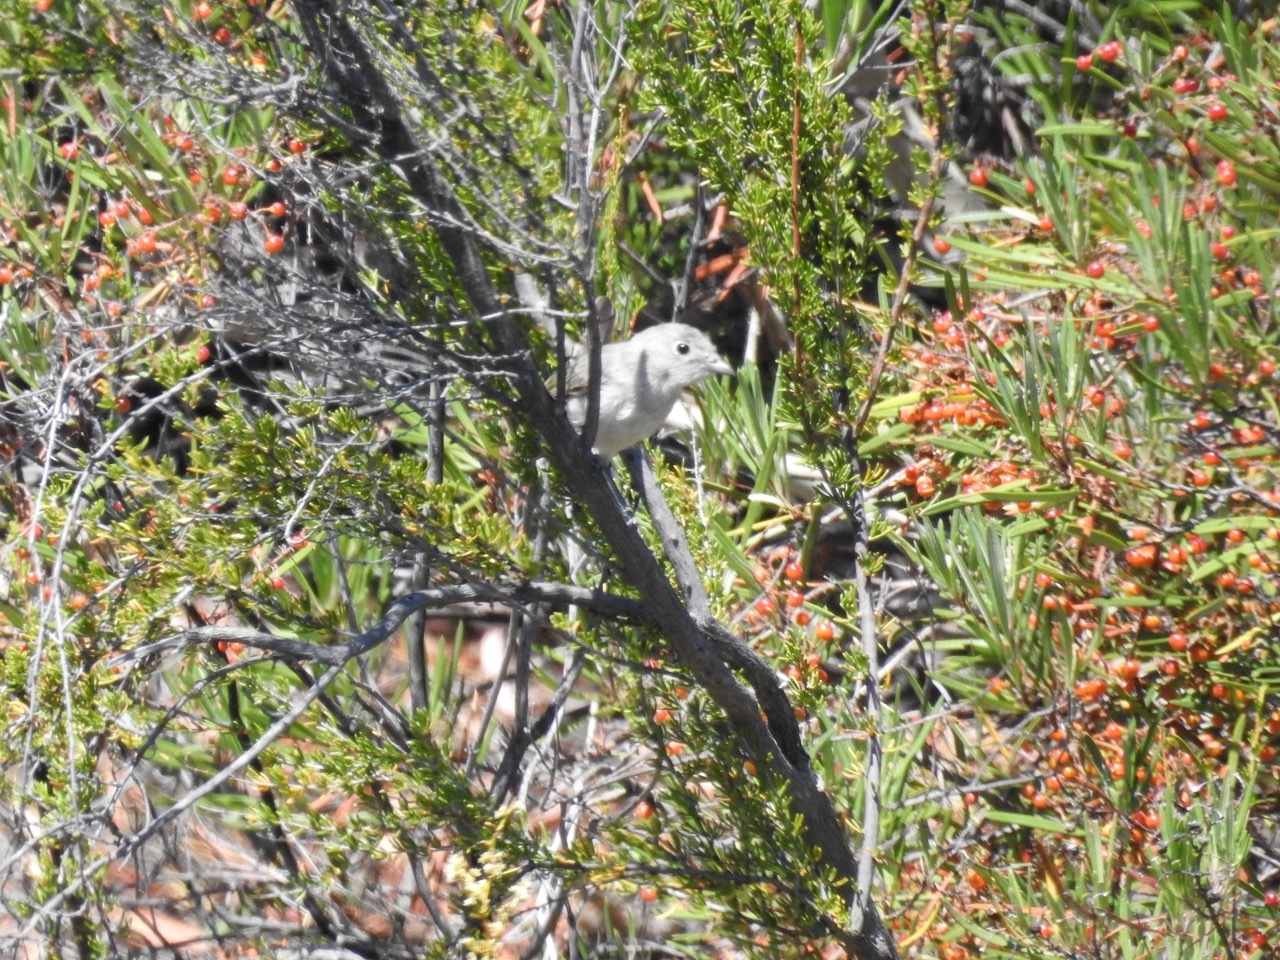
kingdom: Animalia
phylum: Chordata
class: Aves
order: Passeriformes
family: Vireonidae
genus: Vireo
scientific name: Vireo vicinior
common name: Gray vireo
